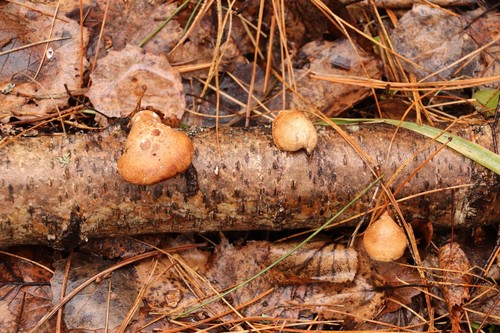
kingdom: Fungi
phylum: Basidiomycota
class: Agaricomycetes
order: Polyporales
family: Fomitopsidaceae
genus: Fomitopsis
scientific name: Fomitopsis betulina
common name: Birch polypore
